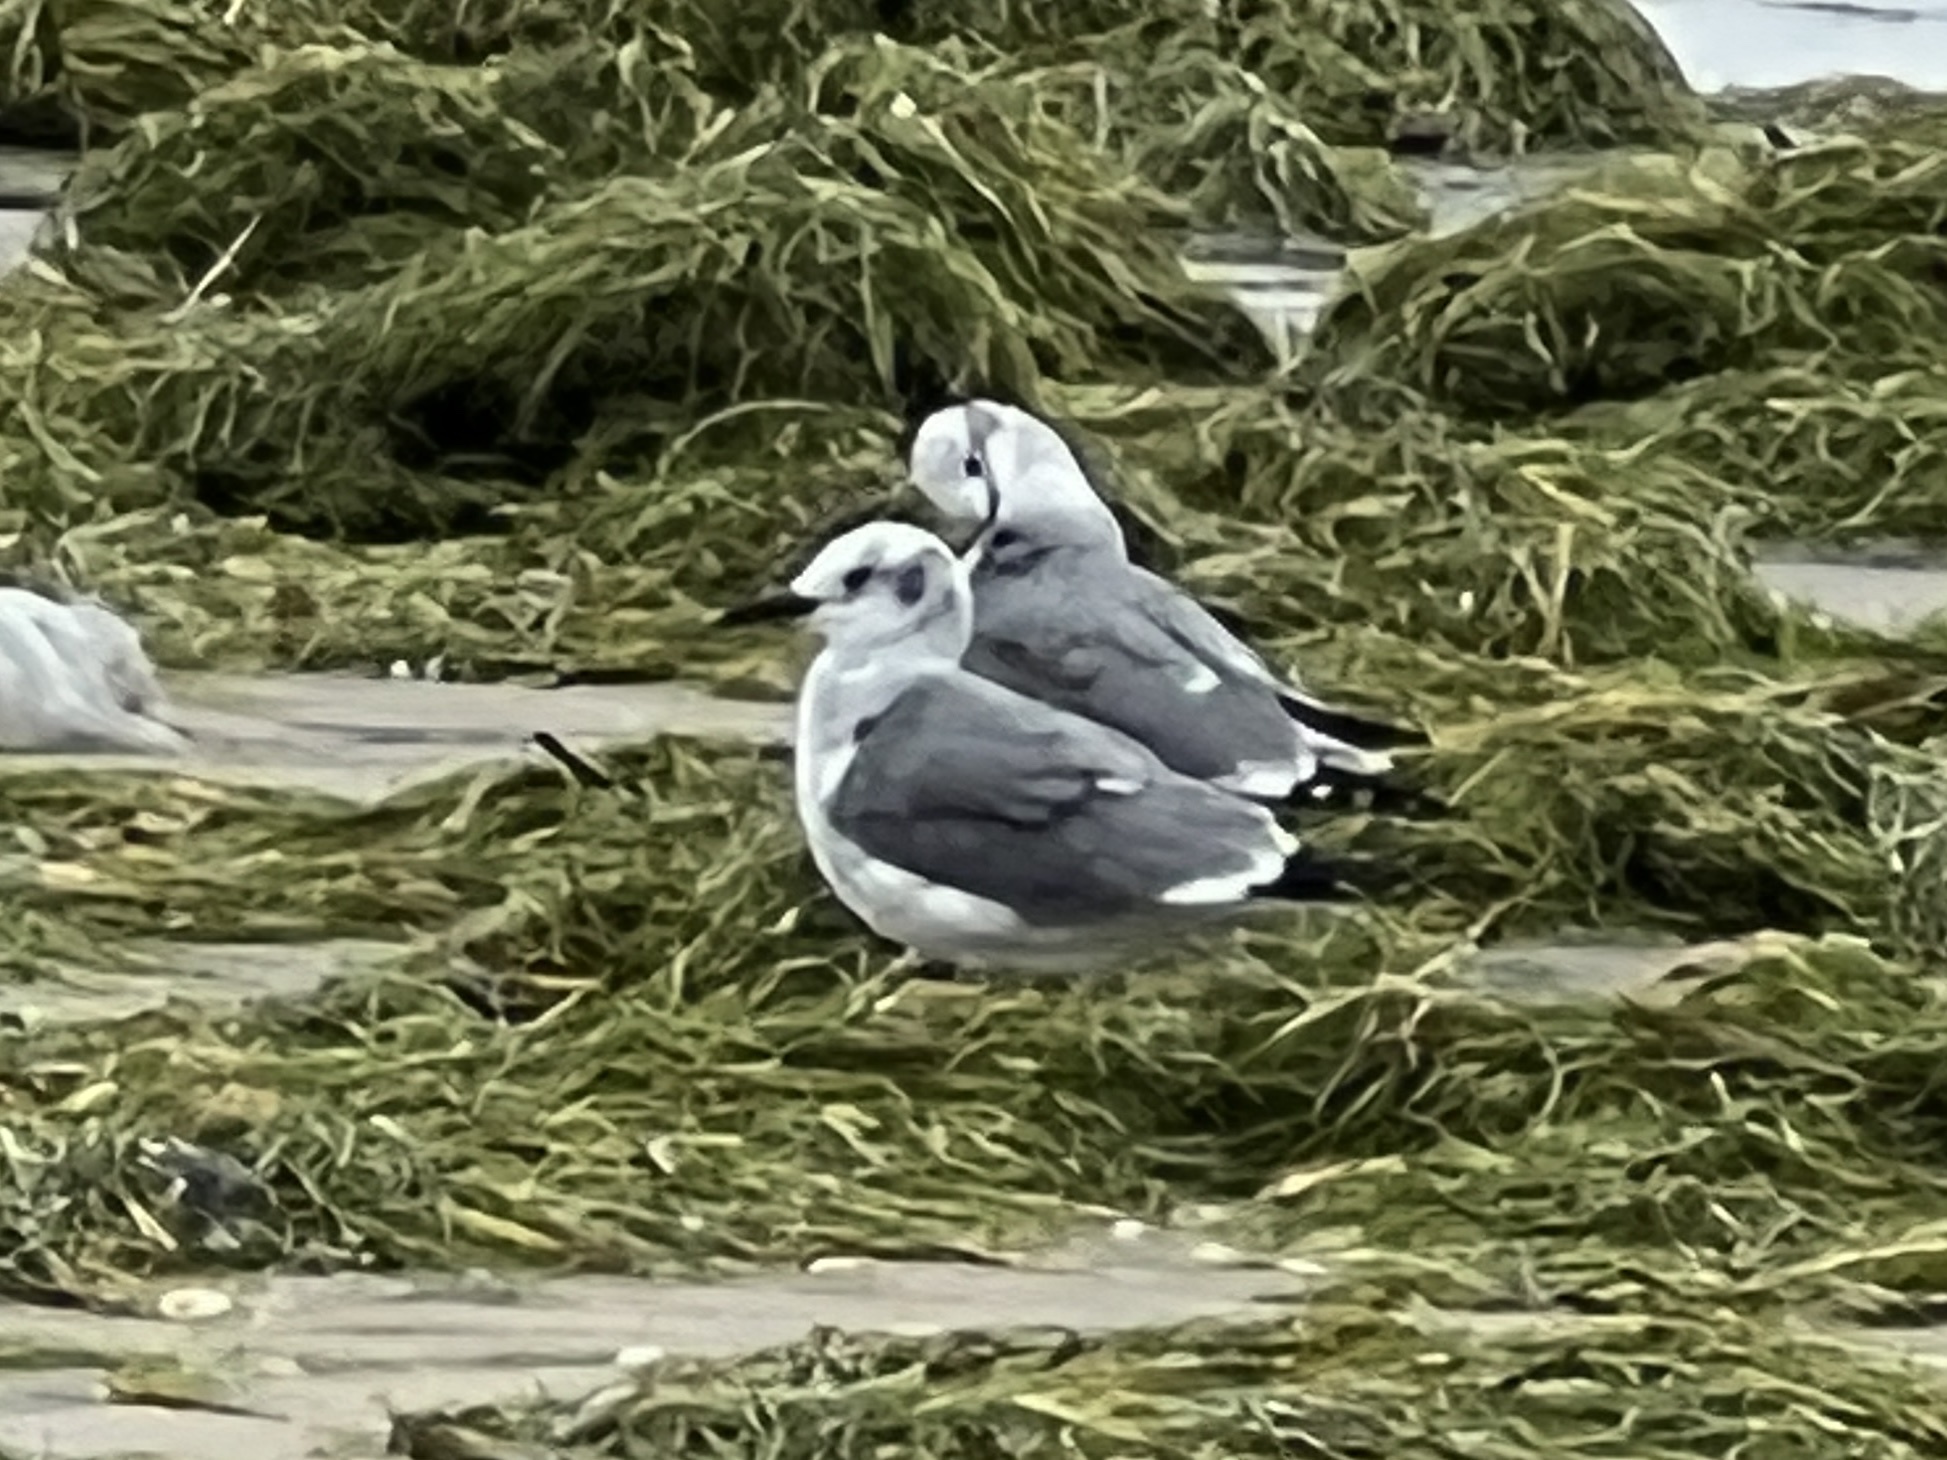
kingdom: Animalia
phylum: Chordata
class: Aves
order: Charadriiformes
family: Laridae
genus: Leucophaeus
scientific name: Leucophaeus atricilla
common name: Laughing gull
